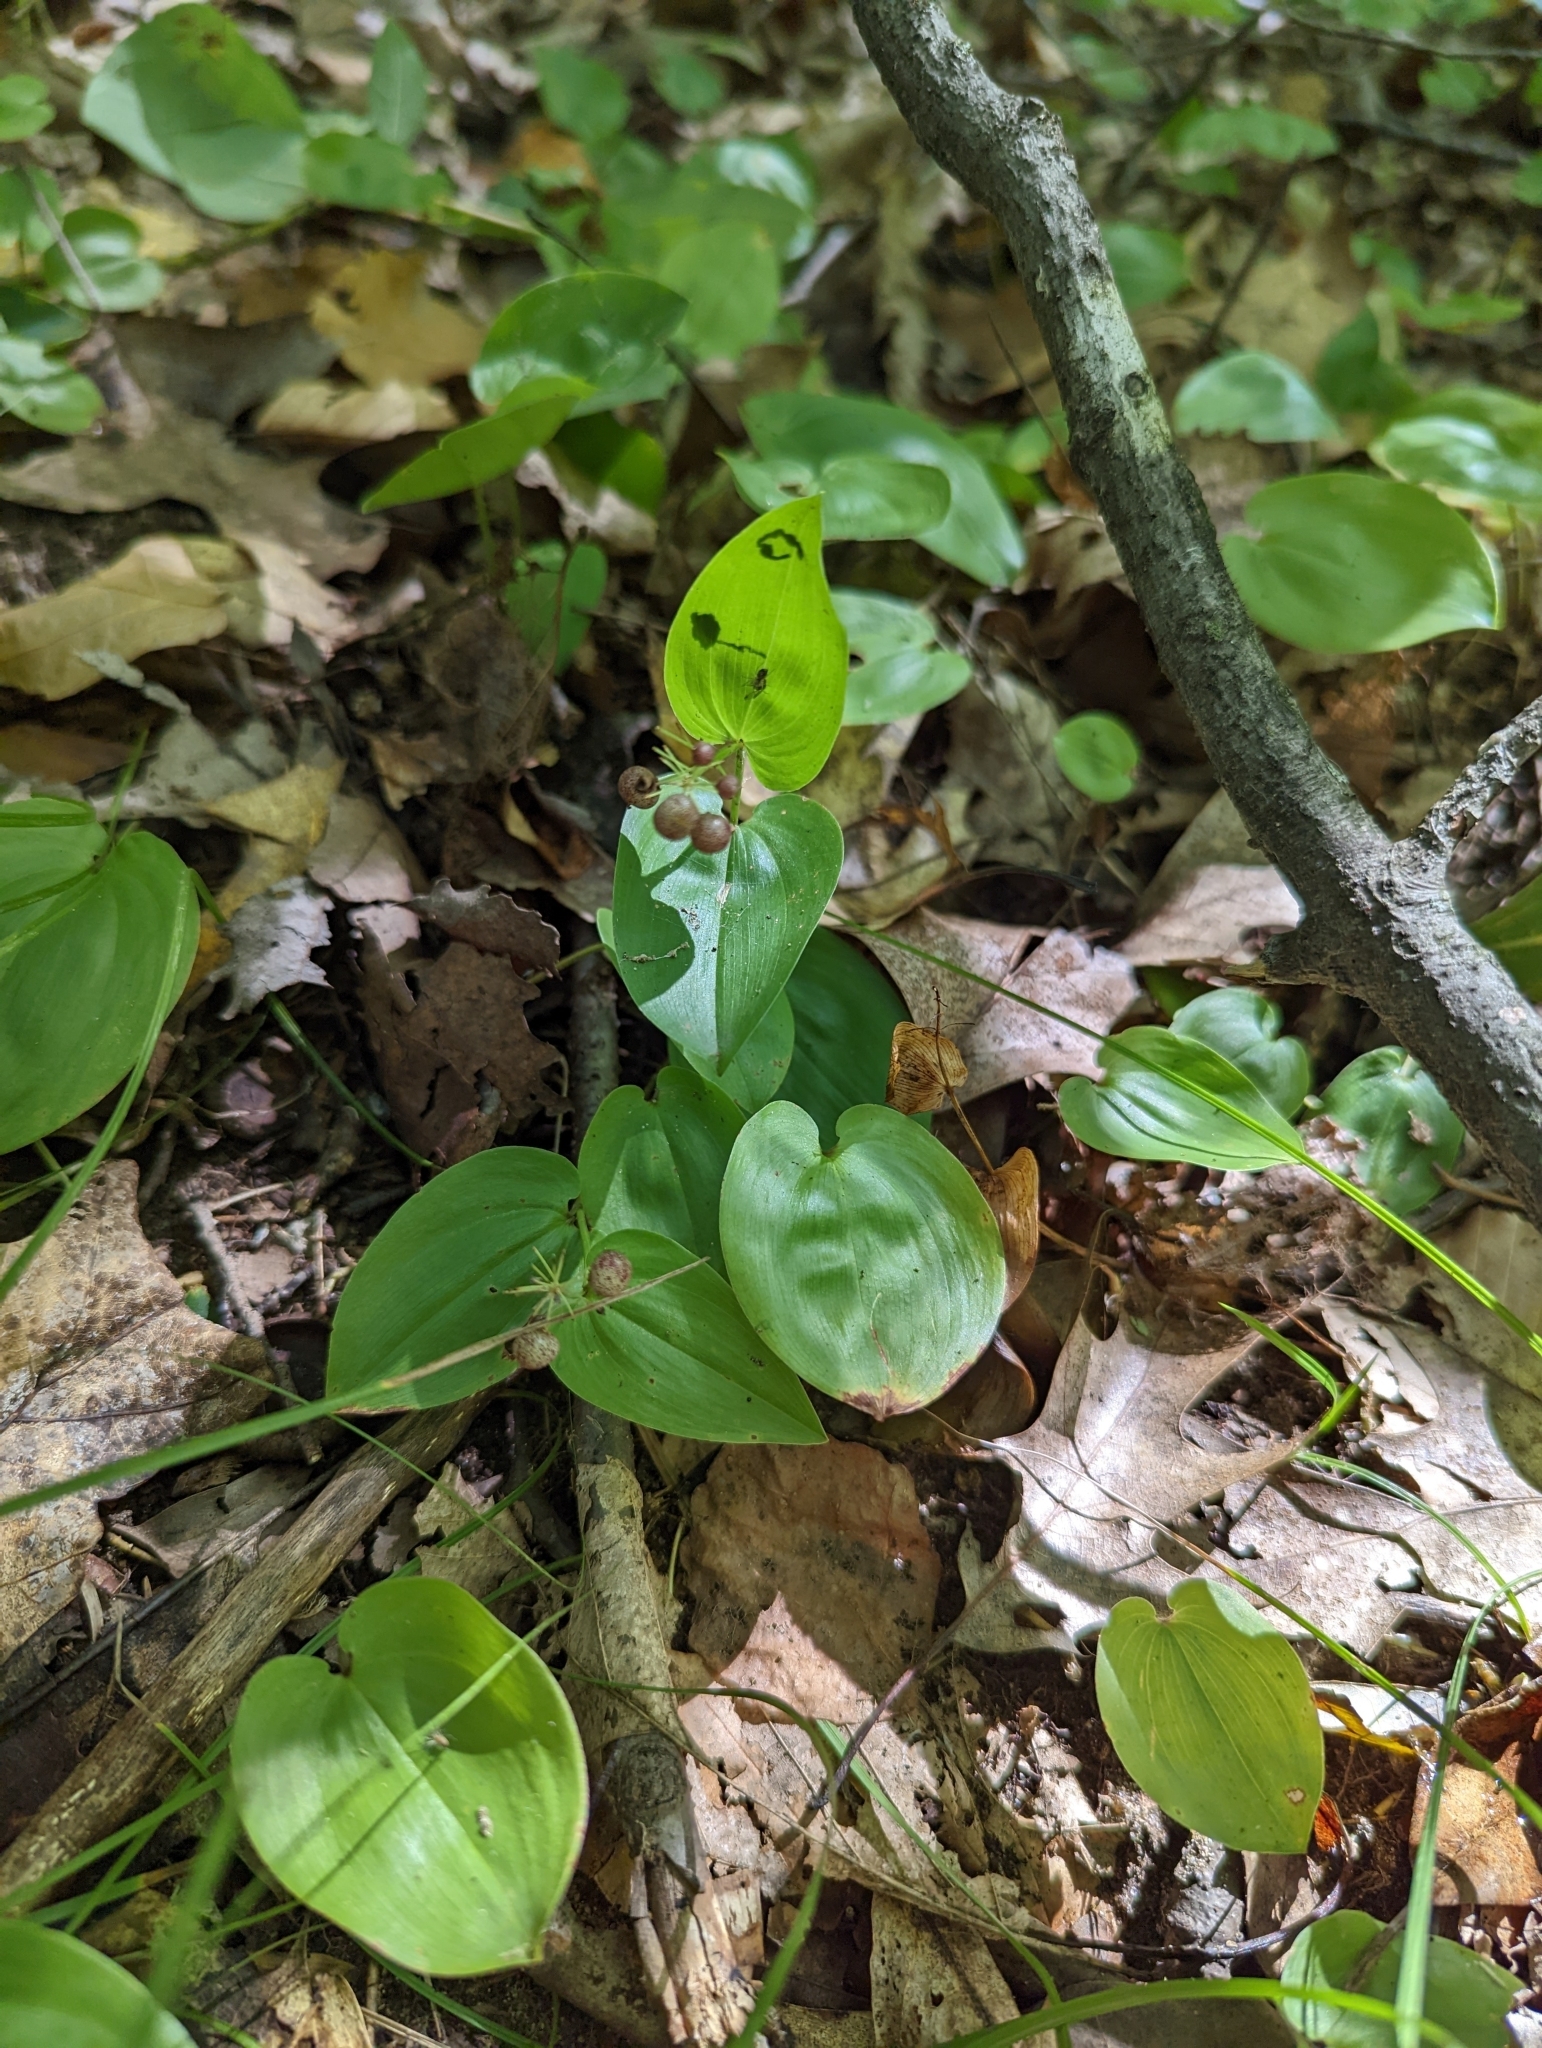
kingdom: Plantae
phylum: Tracheophyta
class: Liliopsida
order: Asparagales
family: Asparagaceae
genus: Maianthemum
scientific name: Maianthemum canadense
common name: False lily-of-the-valley
